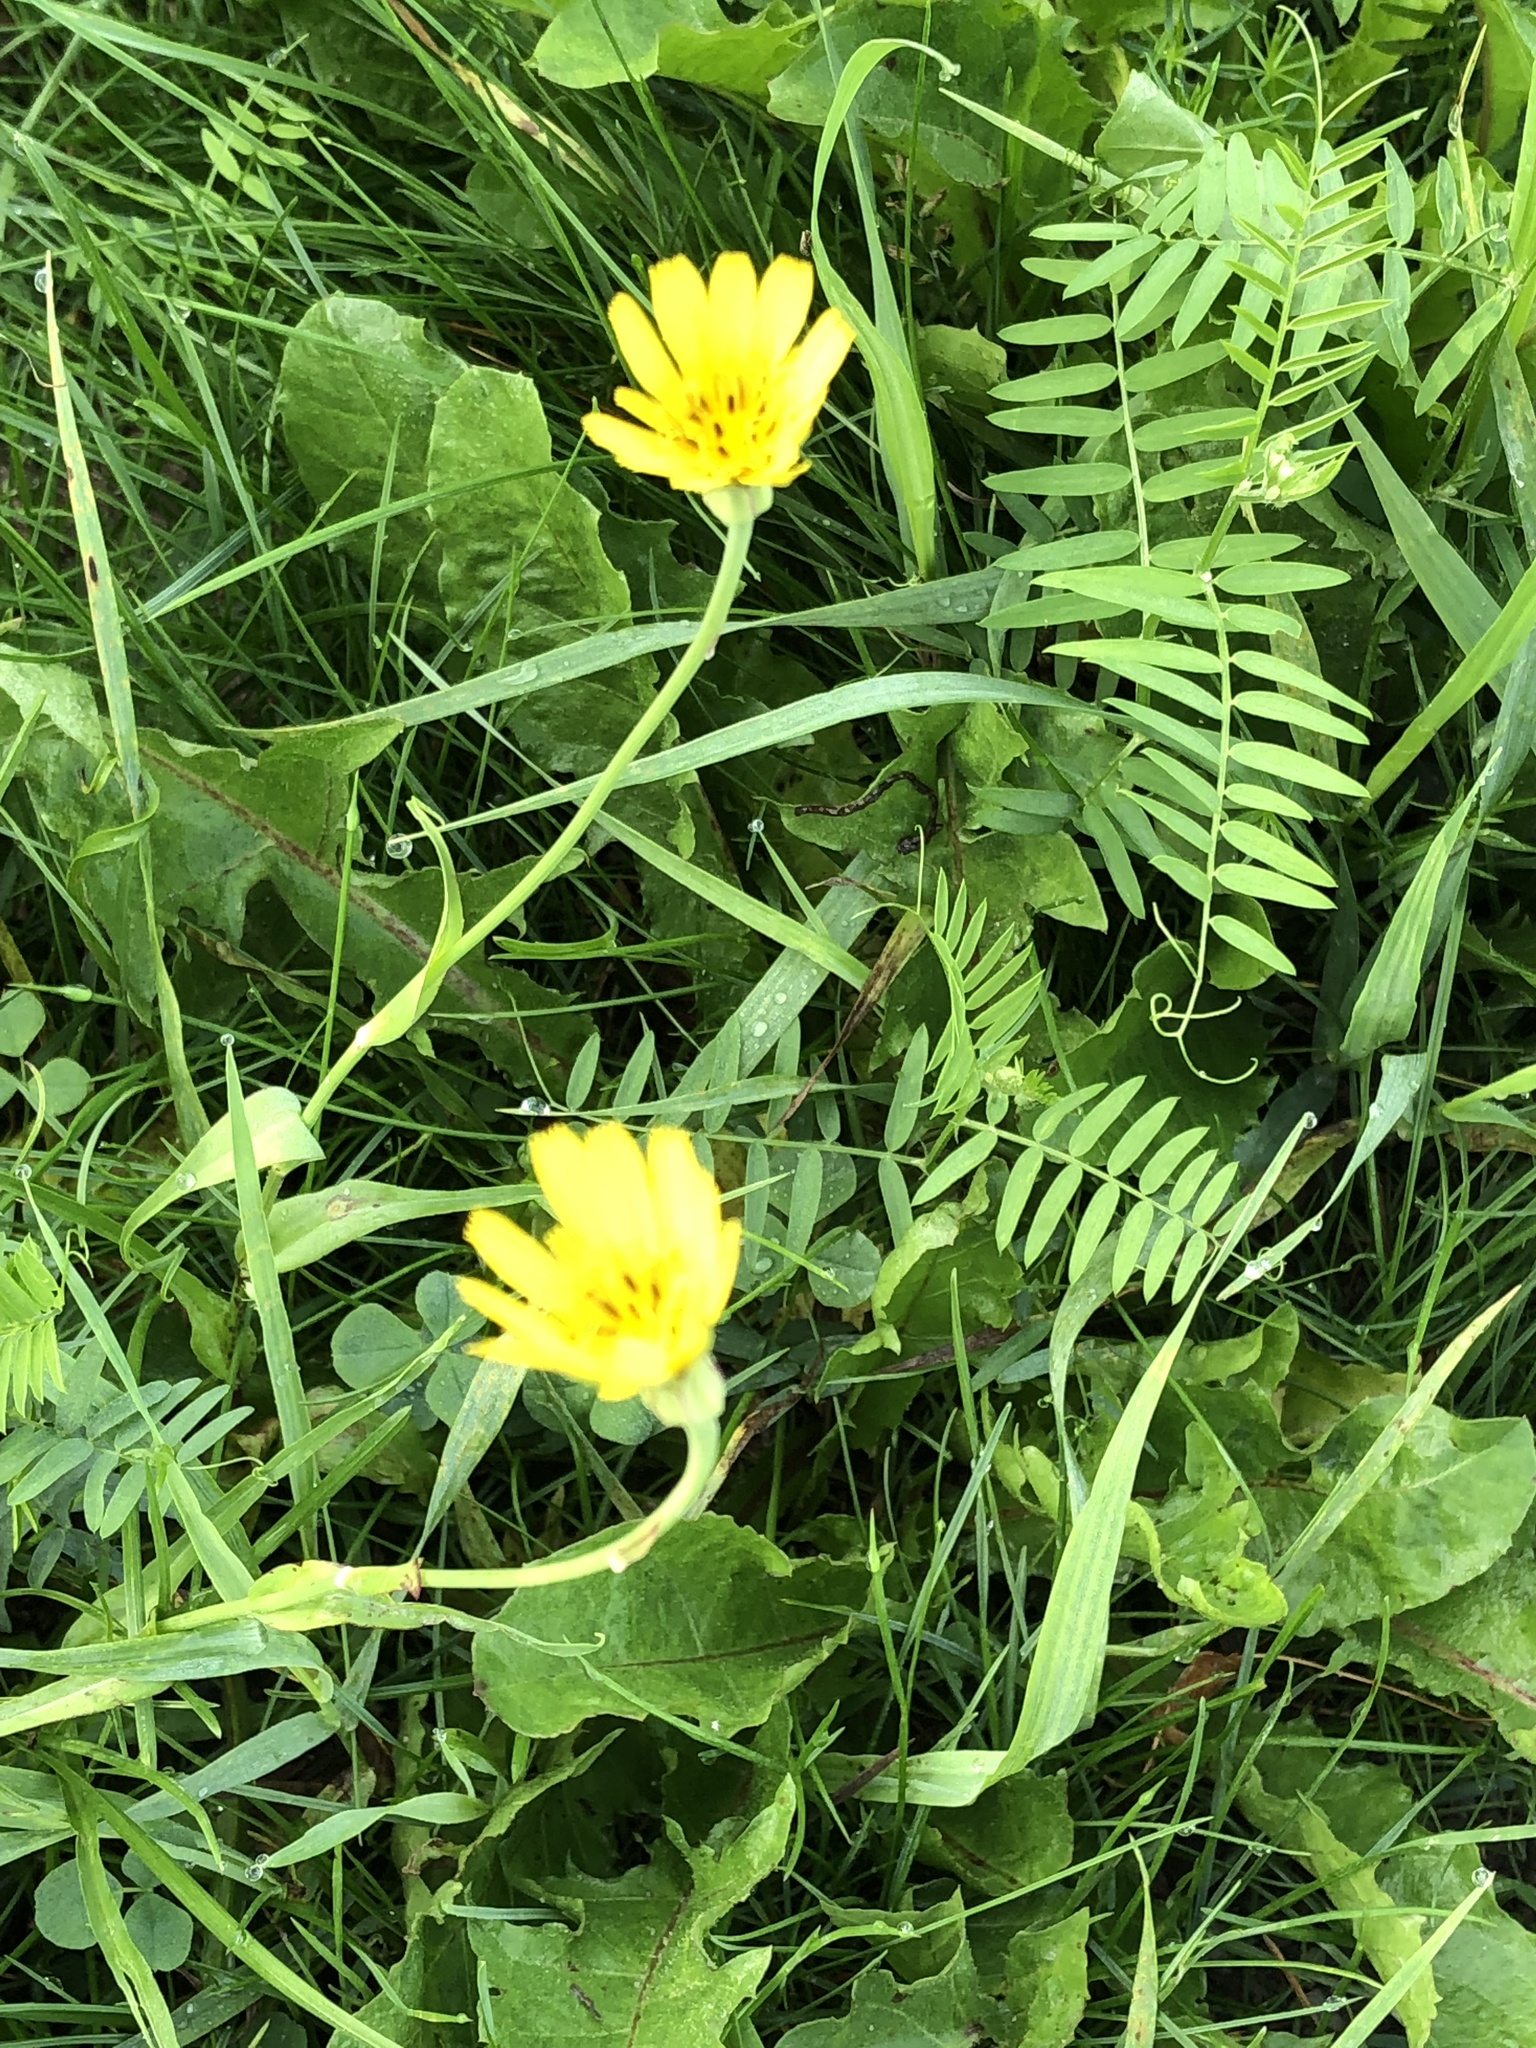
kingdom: Plantae
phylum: Tracheophyta
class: Magnoliopsida
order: Asterales
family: Asteraceae
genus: Tragopogon
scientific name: Tragopogon pratensis
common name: Goat's-beard
